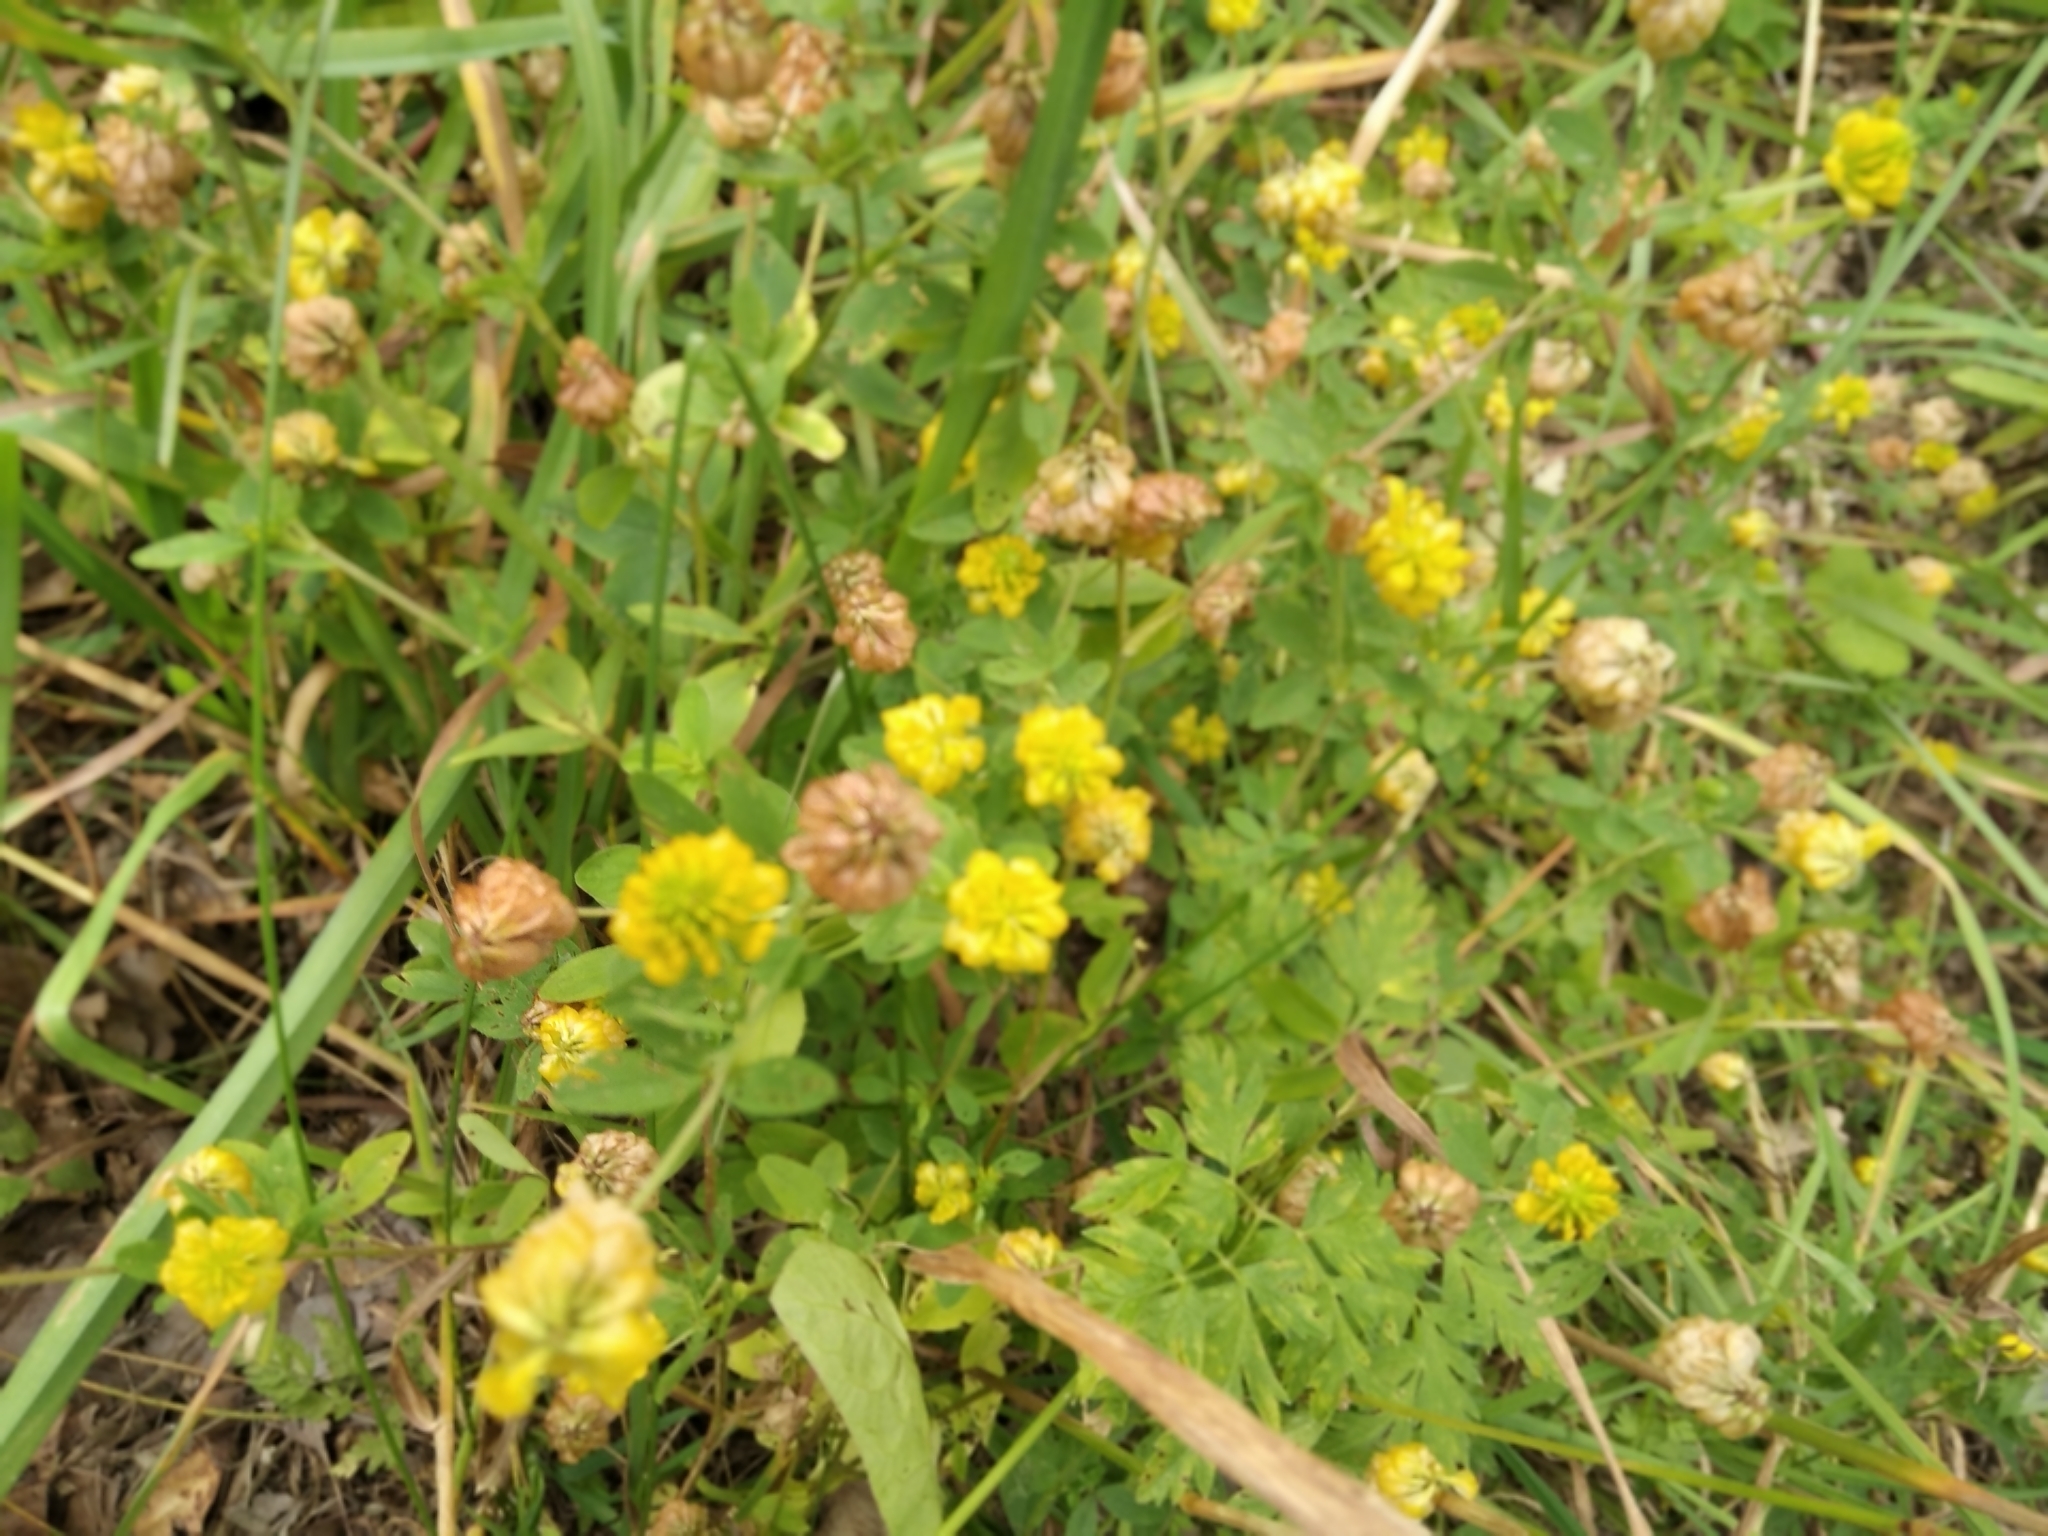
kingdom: Plantae
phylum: Tracheophyta
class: Magnoliopsida
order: Fabales
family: Fabaceae
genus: Trifolium
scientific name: Trifolium aureum
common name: Golden clover
